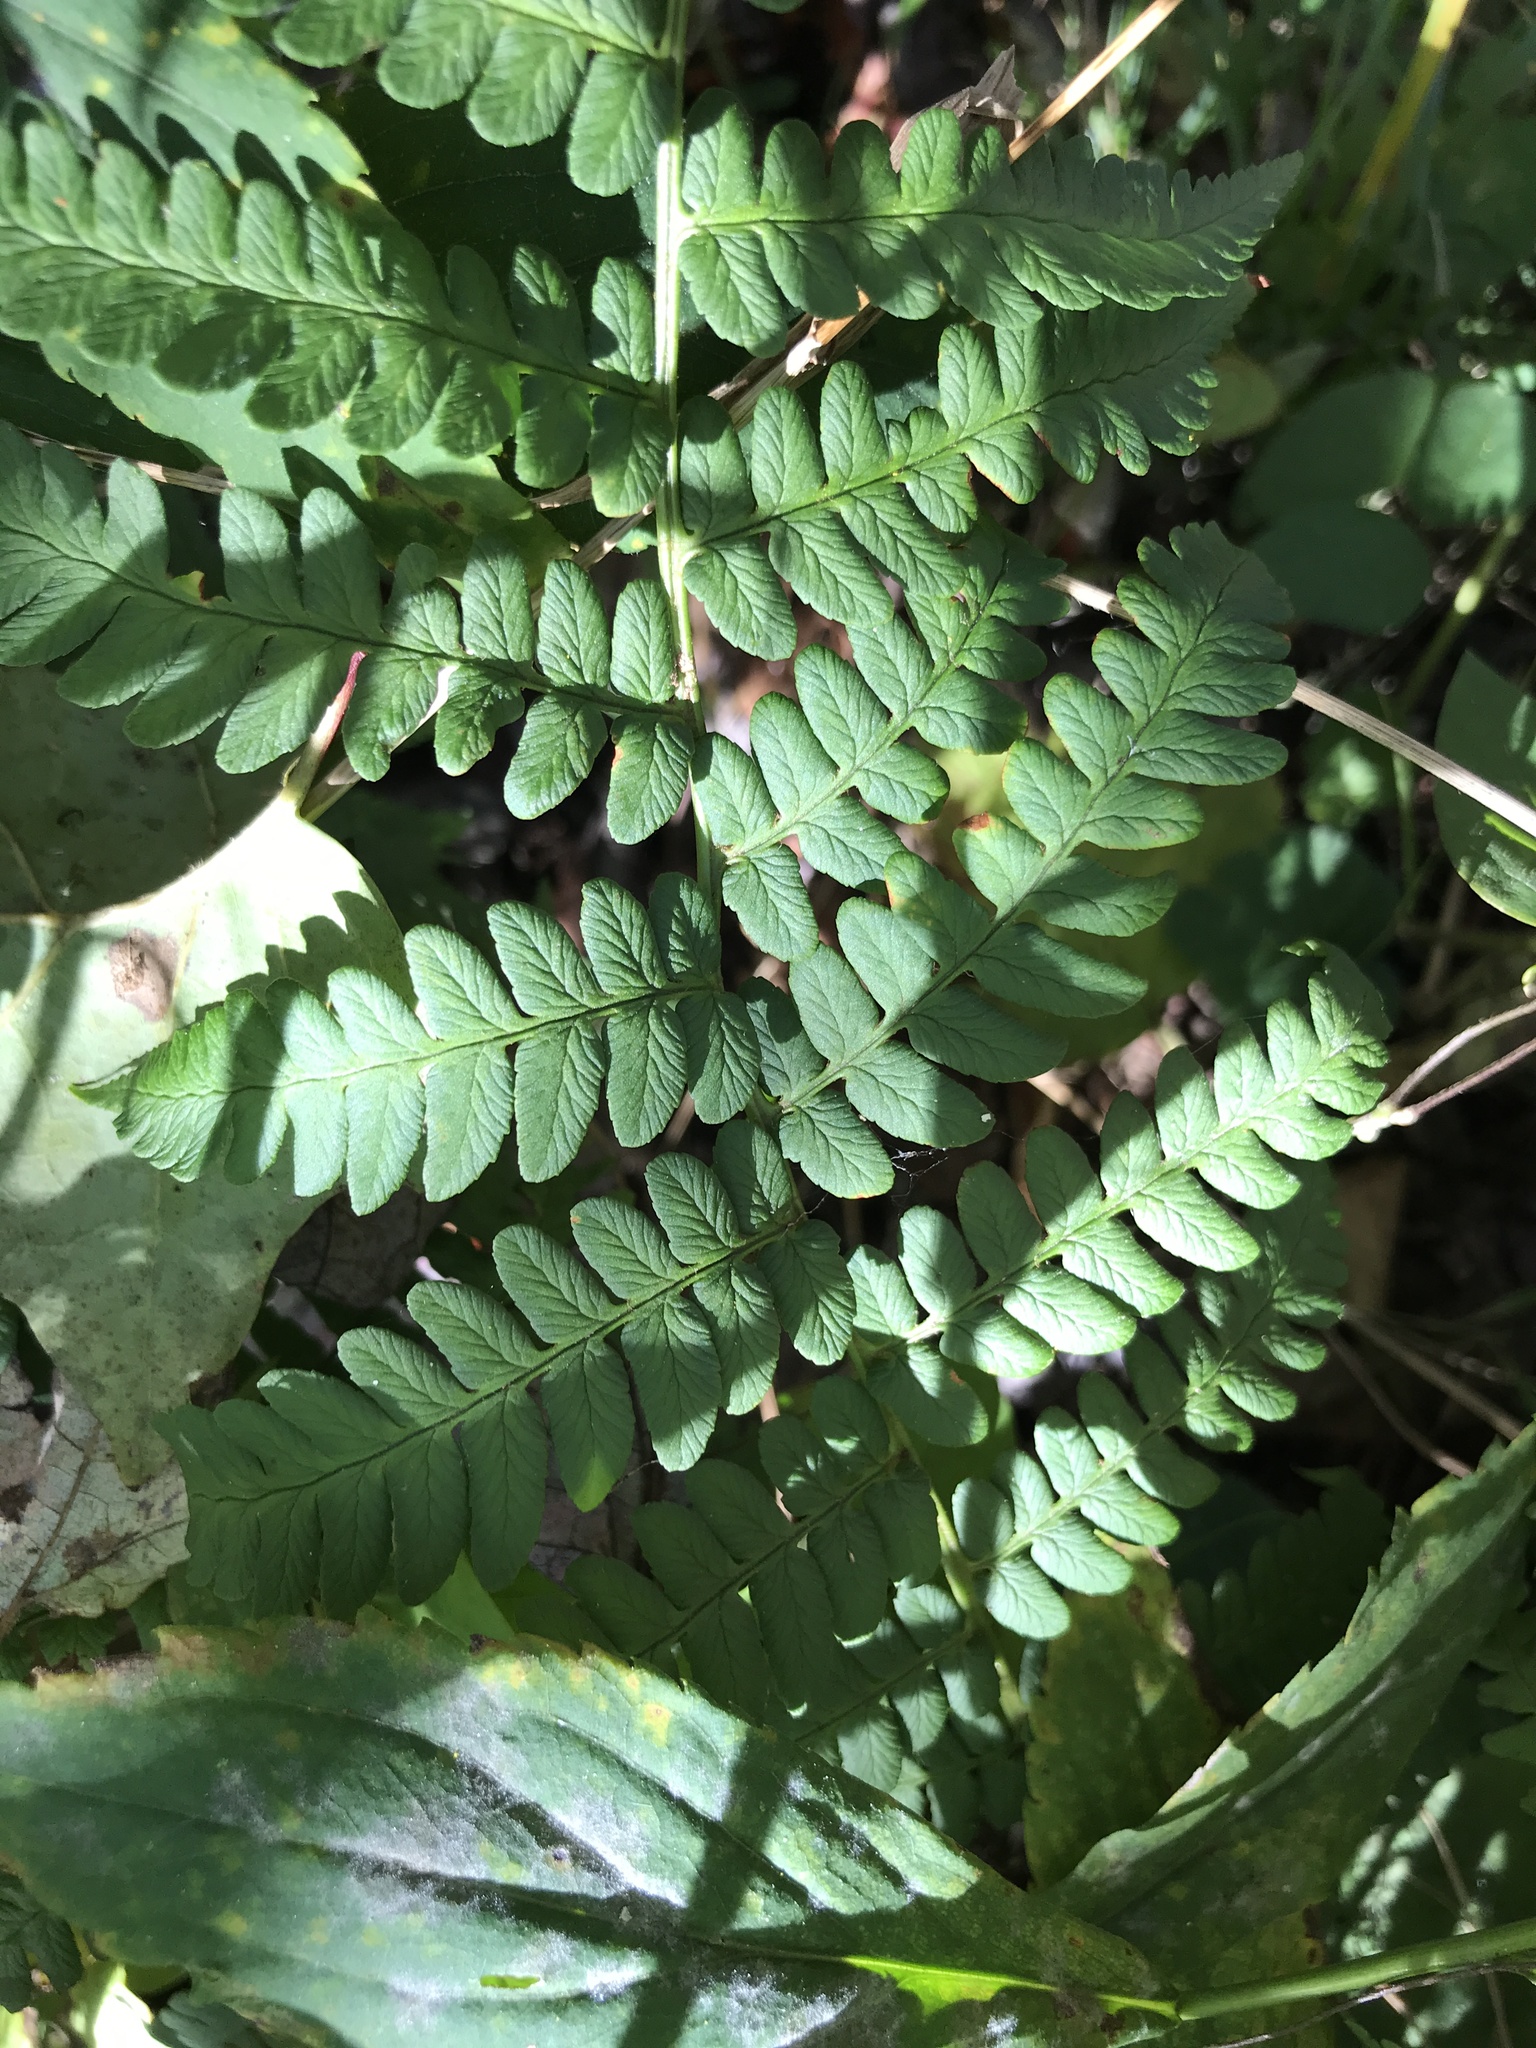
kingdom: Plantae
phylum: Tracheophyta
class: Polypodiopsida
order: Polypodiales
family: Dryopteridaceae
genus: Dryopteris
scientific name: Dryopteris marginalis
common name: Marginal wood fern
